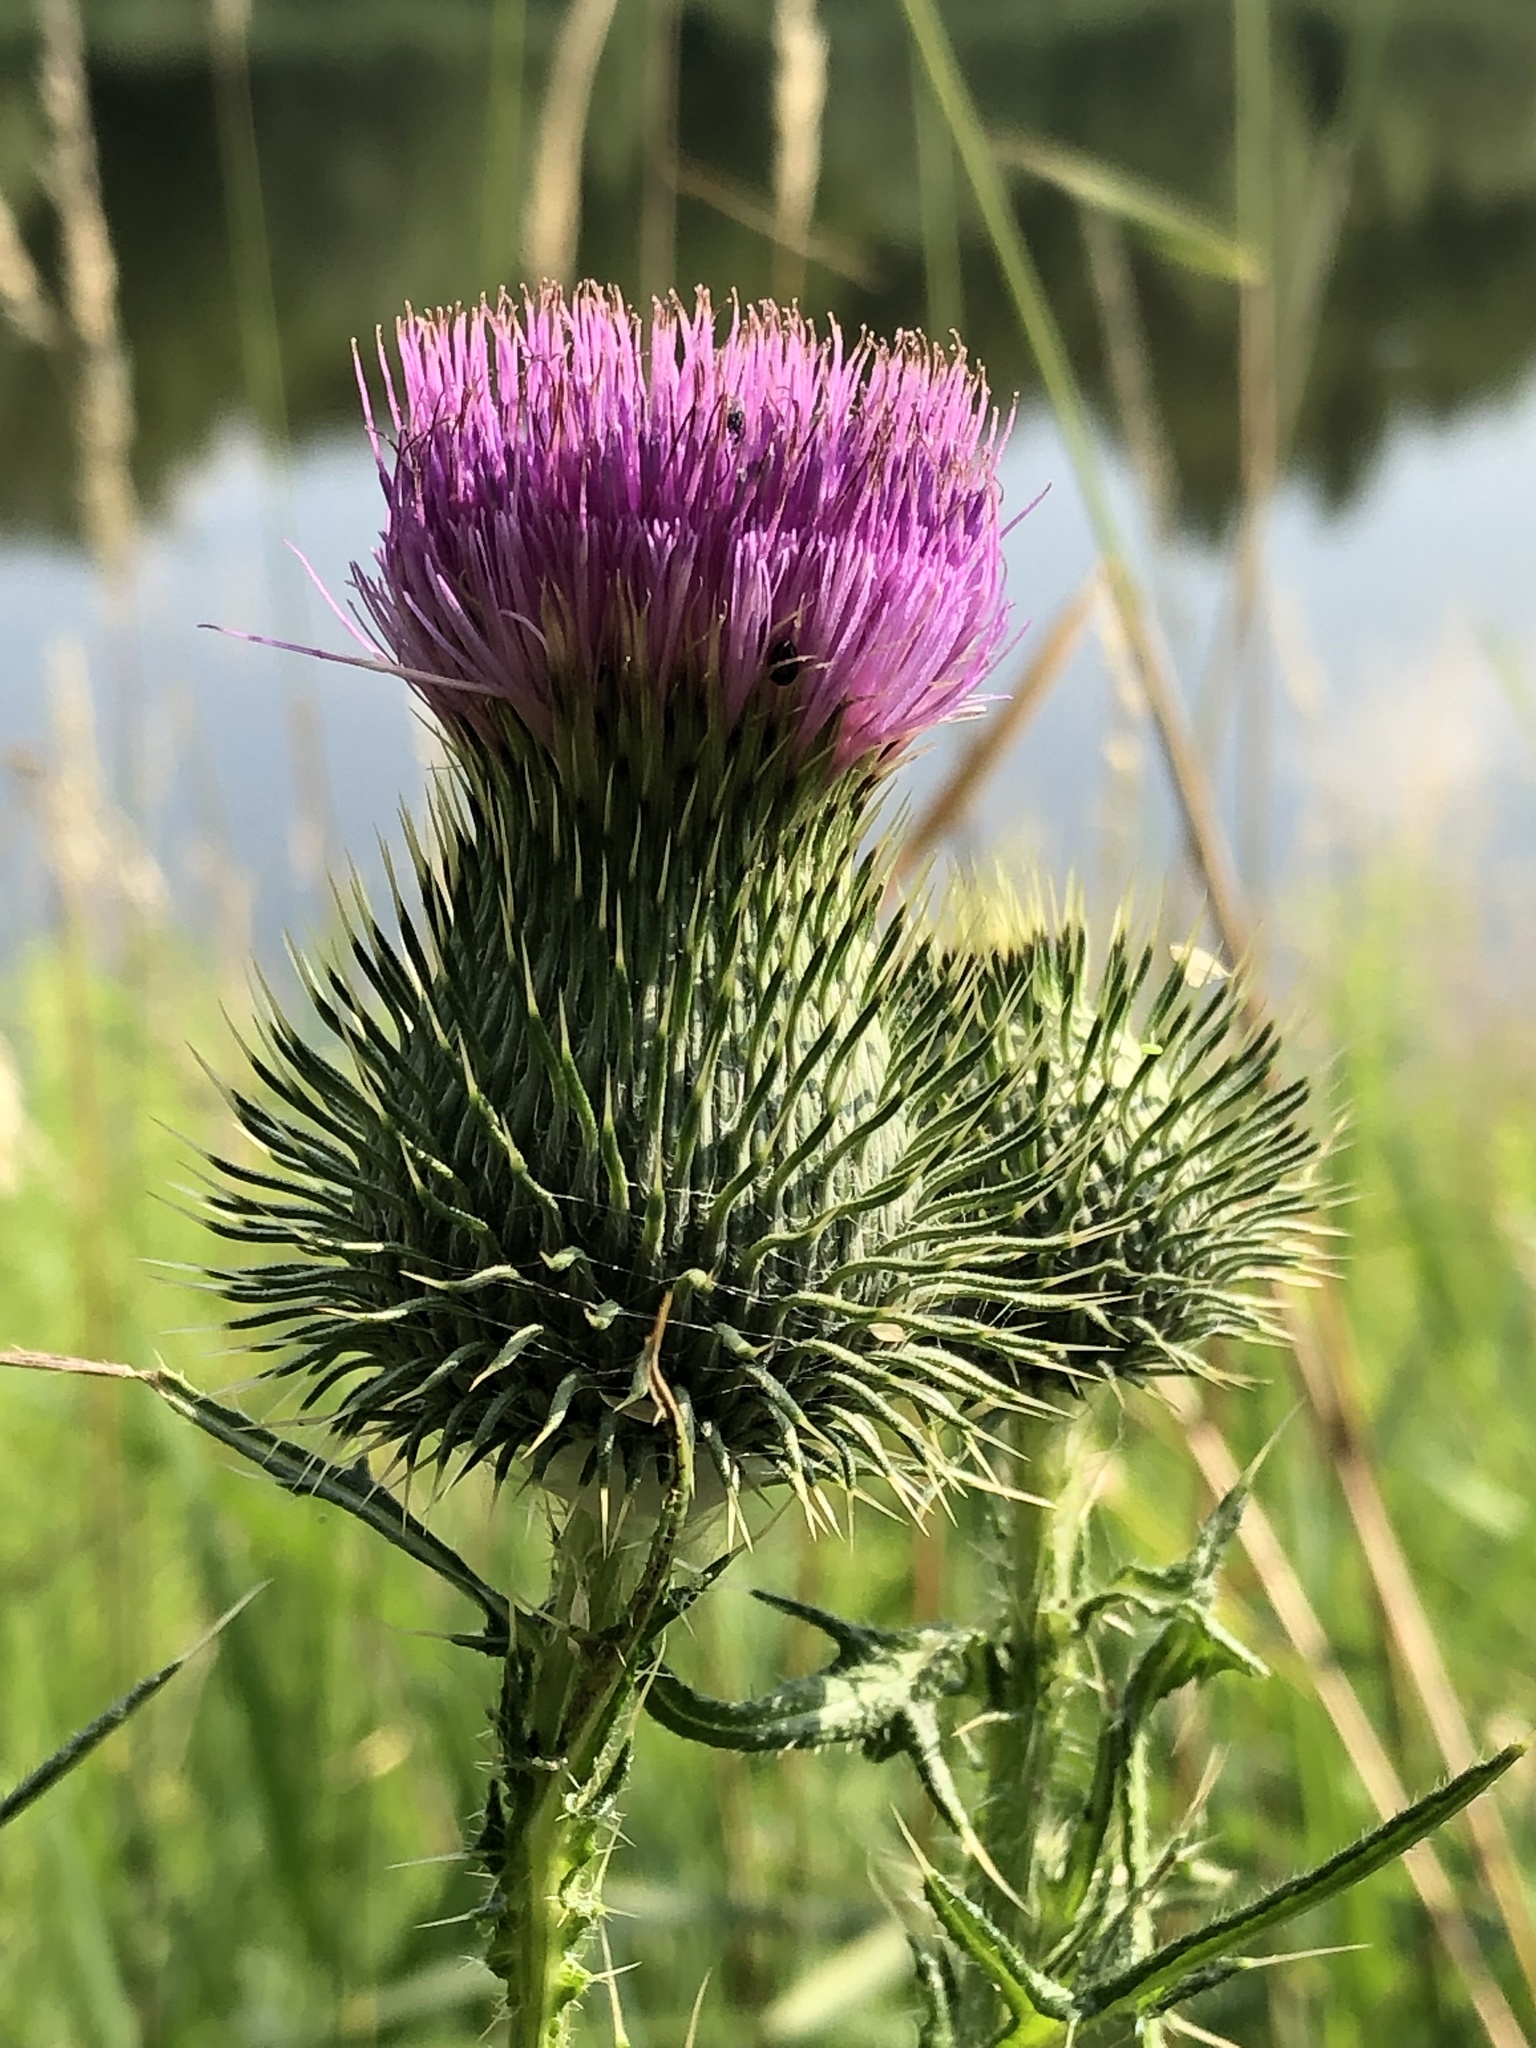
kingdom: Plantae
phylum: Tracheophyta
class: Magnoliopsida
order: Asterales
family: Asteraceae
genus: Cirsium
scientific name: Cirsium vulgare
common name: Bull thistle
